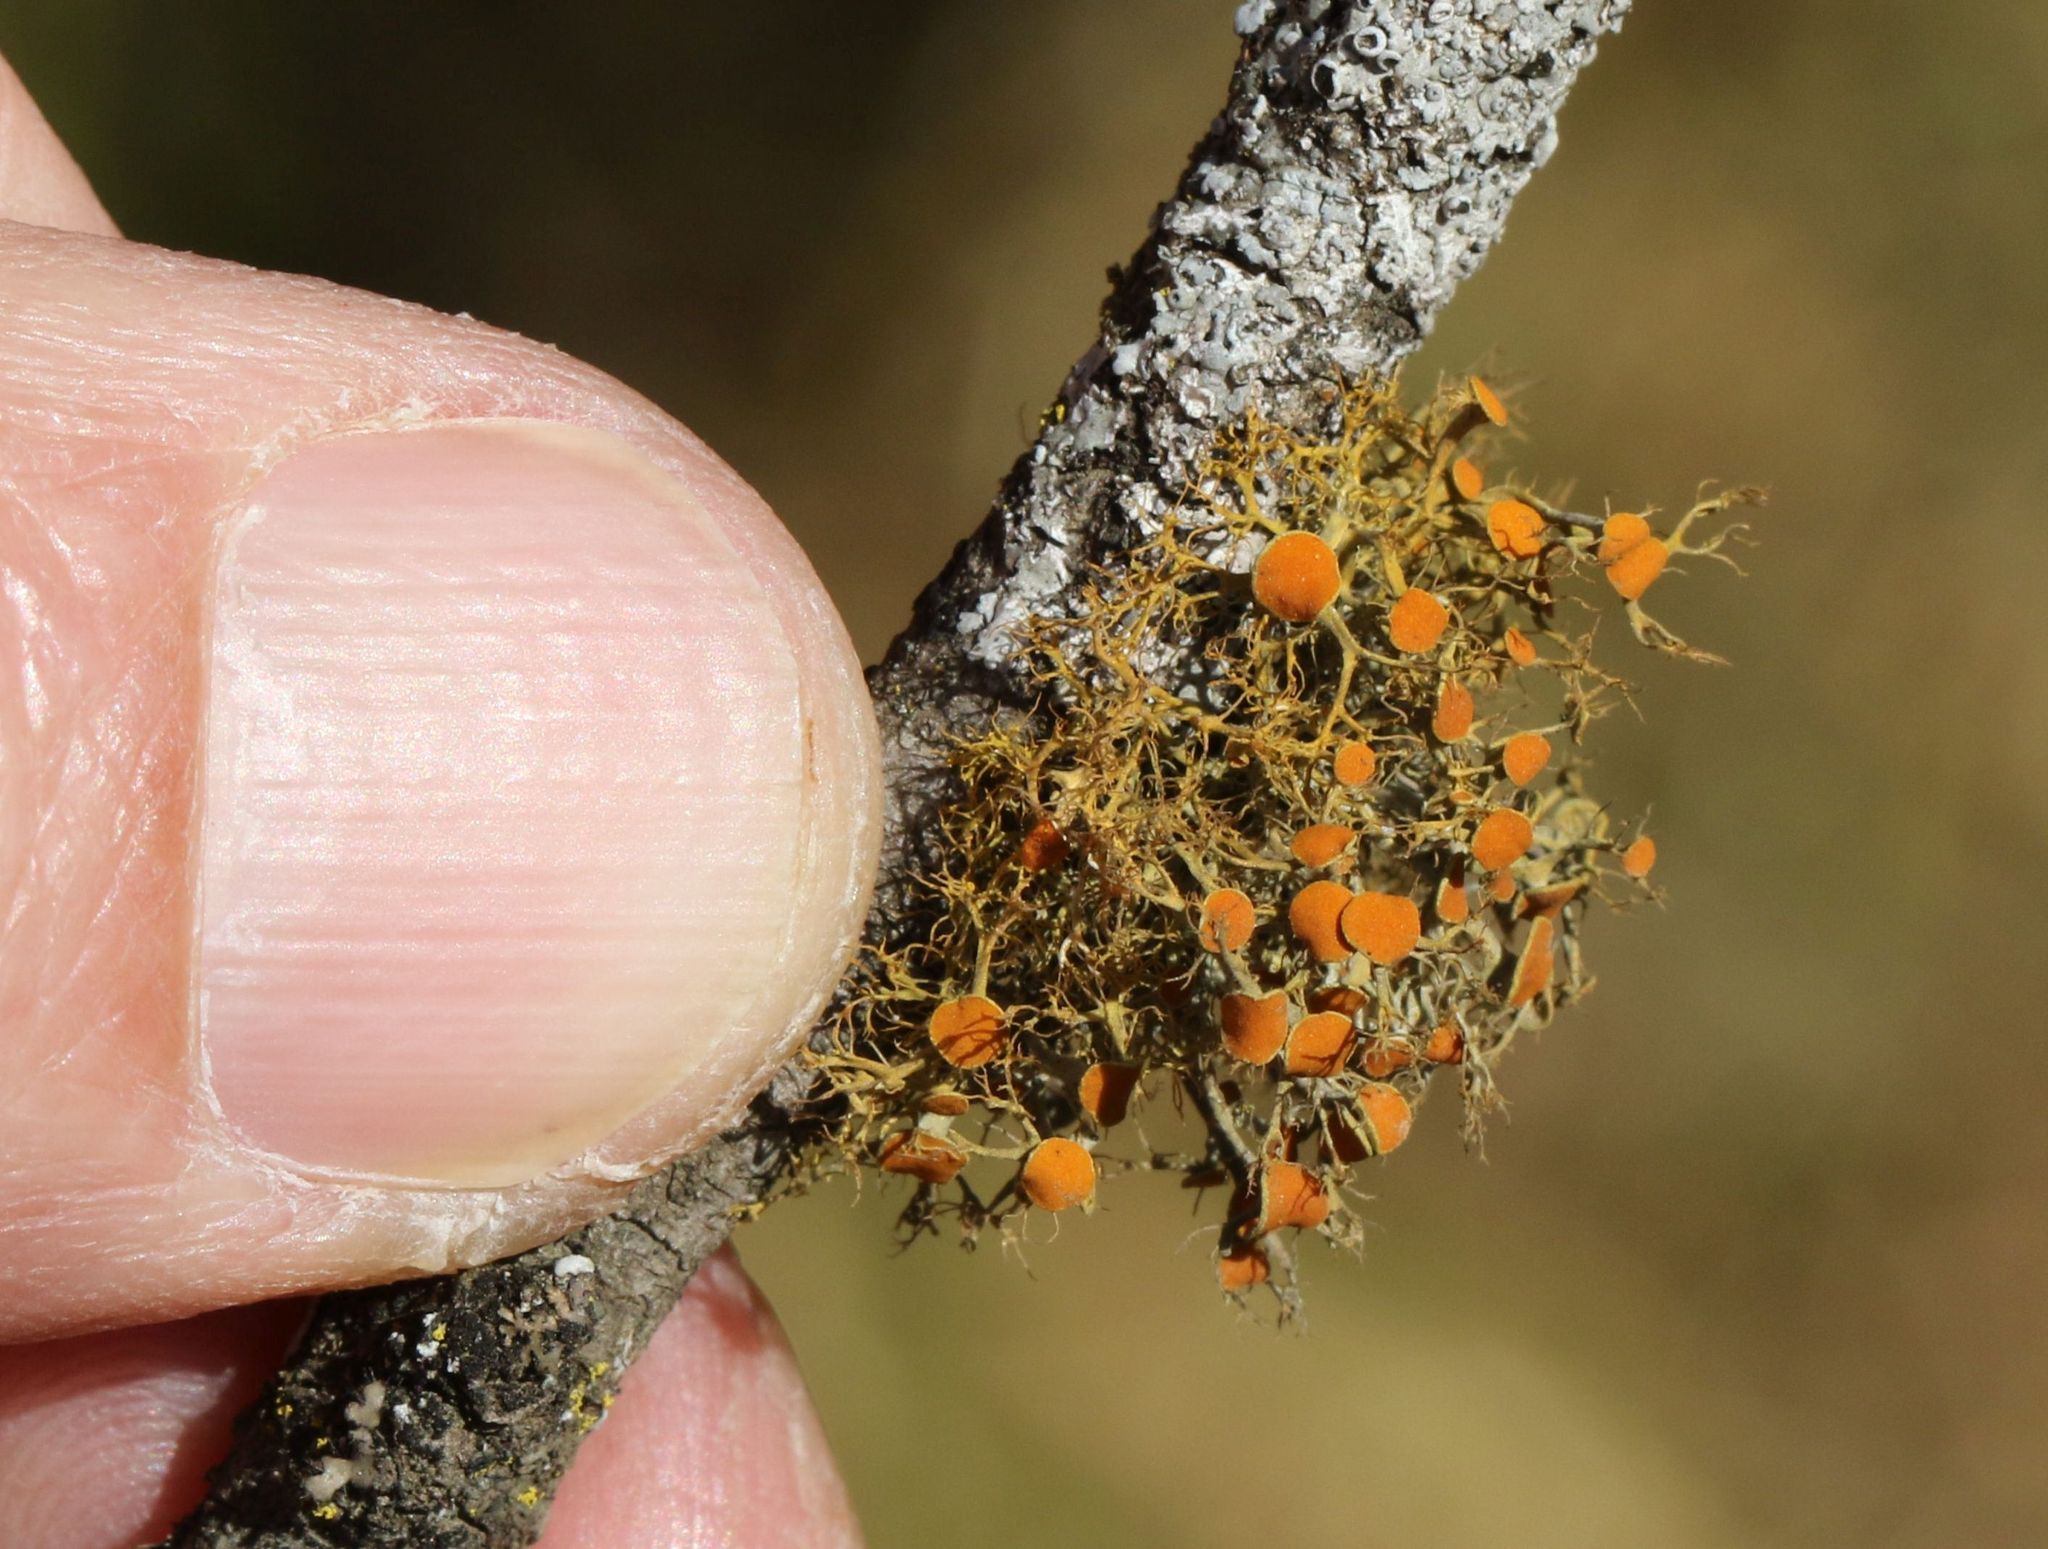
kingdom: Fungi
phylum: Ascomycota
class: Lecanoromycetes
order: Teloschistales
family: Teloschistaceae
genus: Teloschistes
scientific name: Teloschistes exilis
